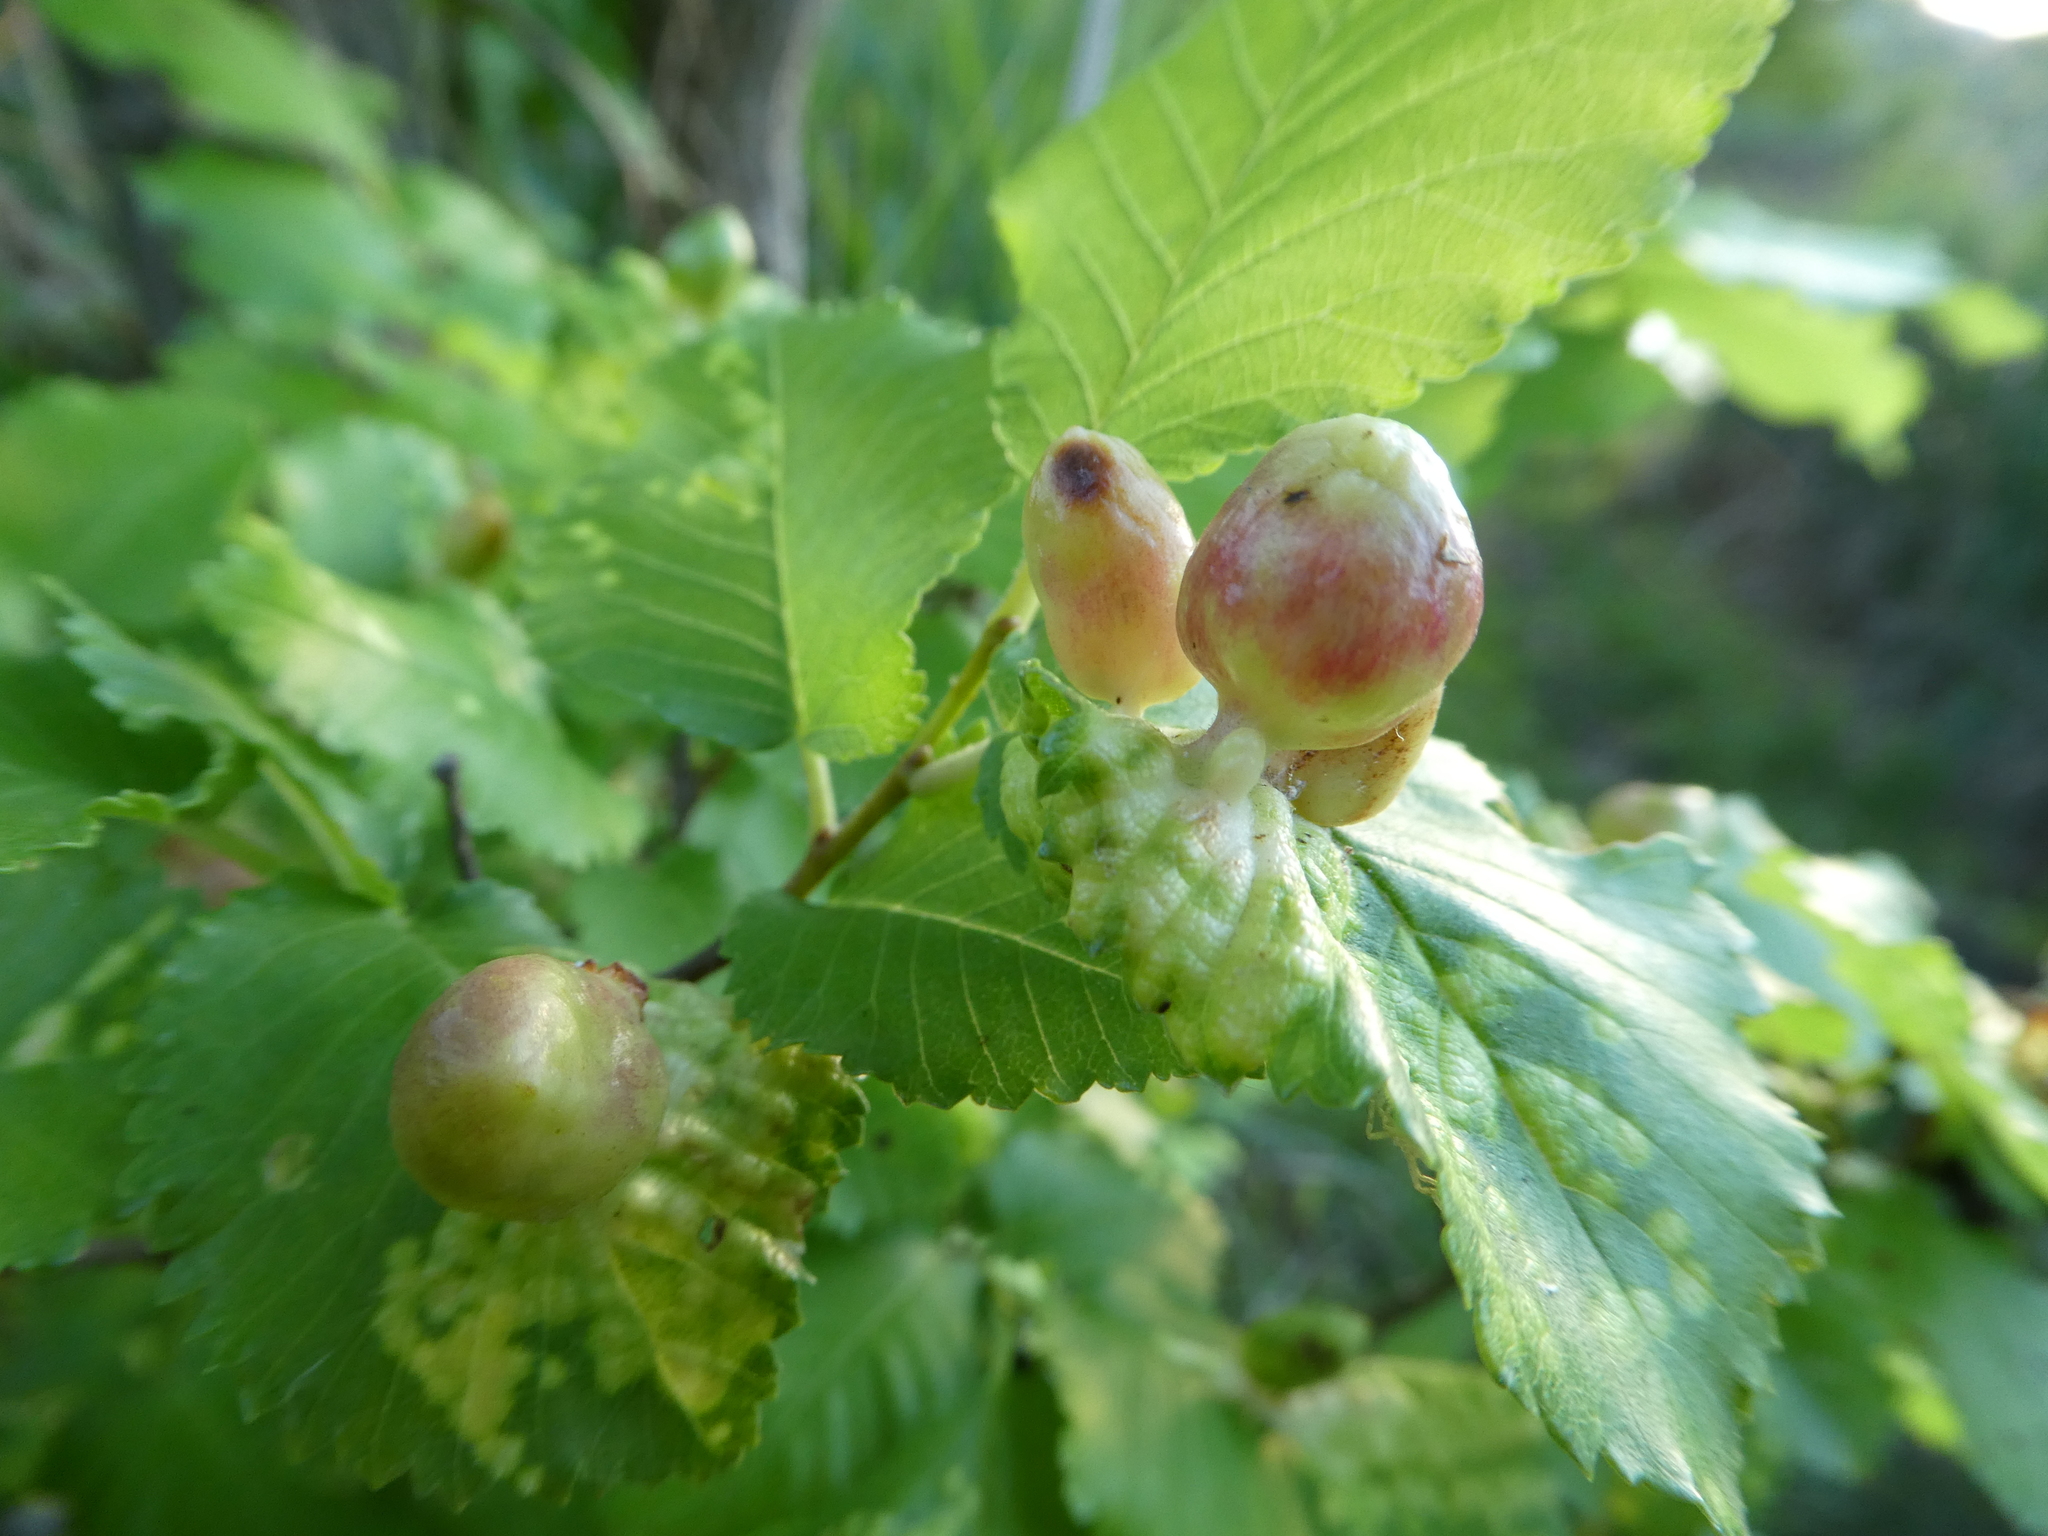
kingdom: Animalia
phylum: Arthropoda
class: Insecta
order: Hemiptera
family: Aphididae
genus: Tetraneura
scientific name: Tetraneura ulmi
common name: Aphid
